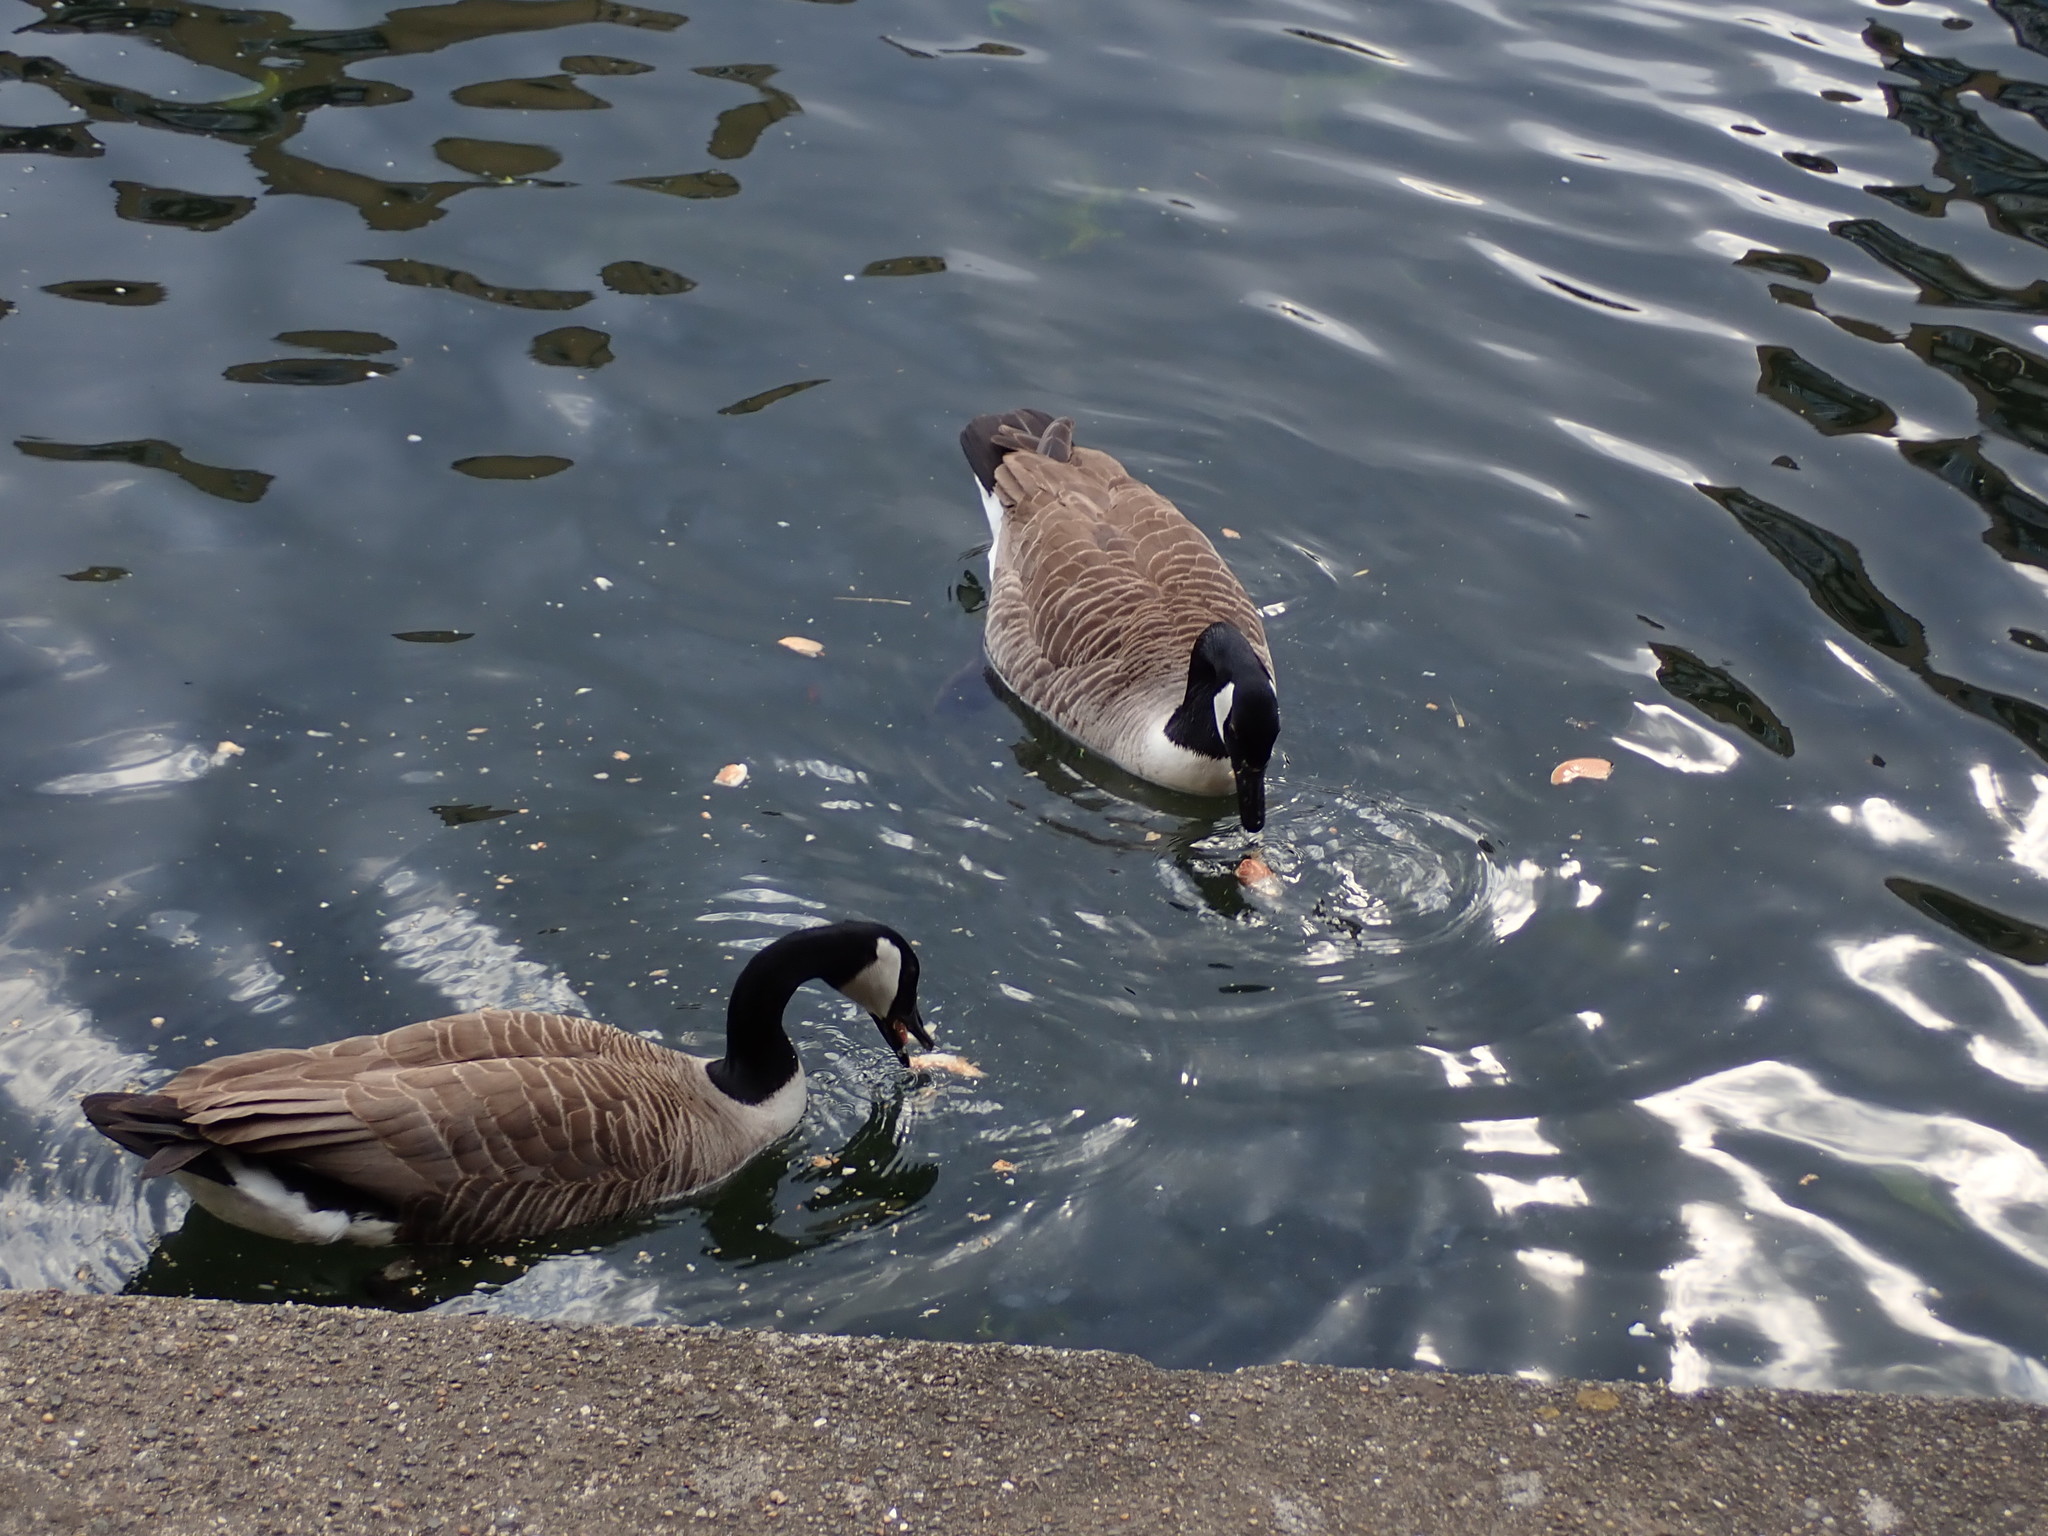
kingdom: Animalia
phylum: Chordata
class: Aves
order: Anseriformes
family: Anatidae
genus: Branta
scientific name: Branta canadensis
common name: Canada goose
